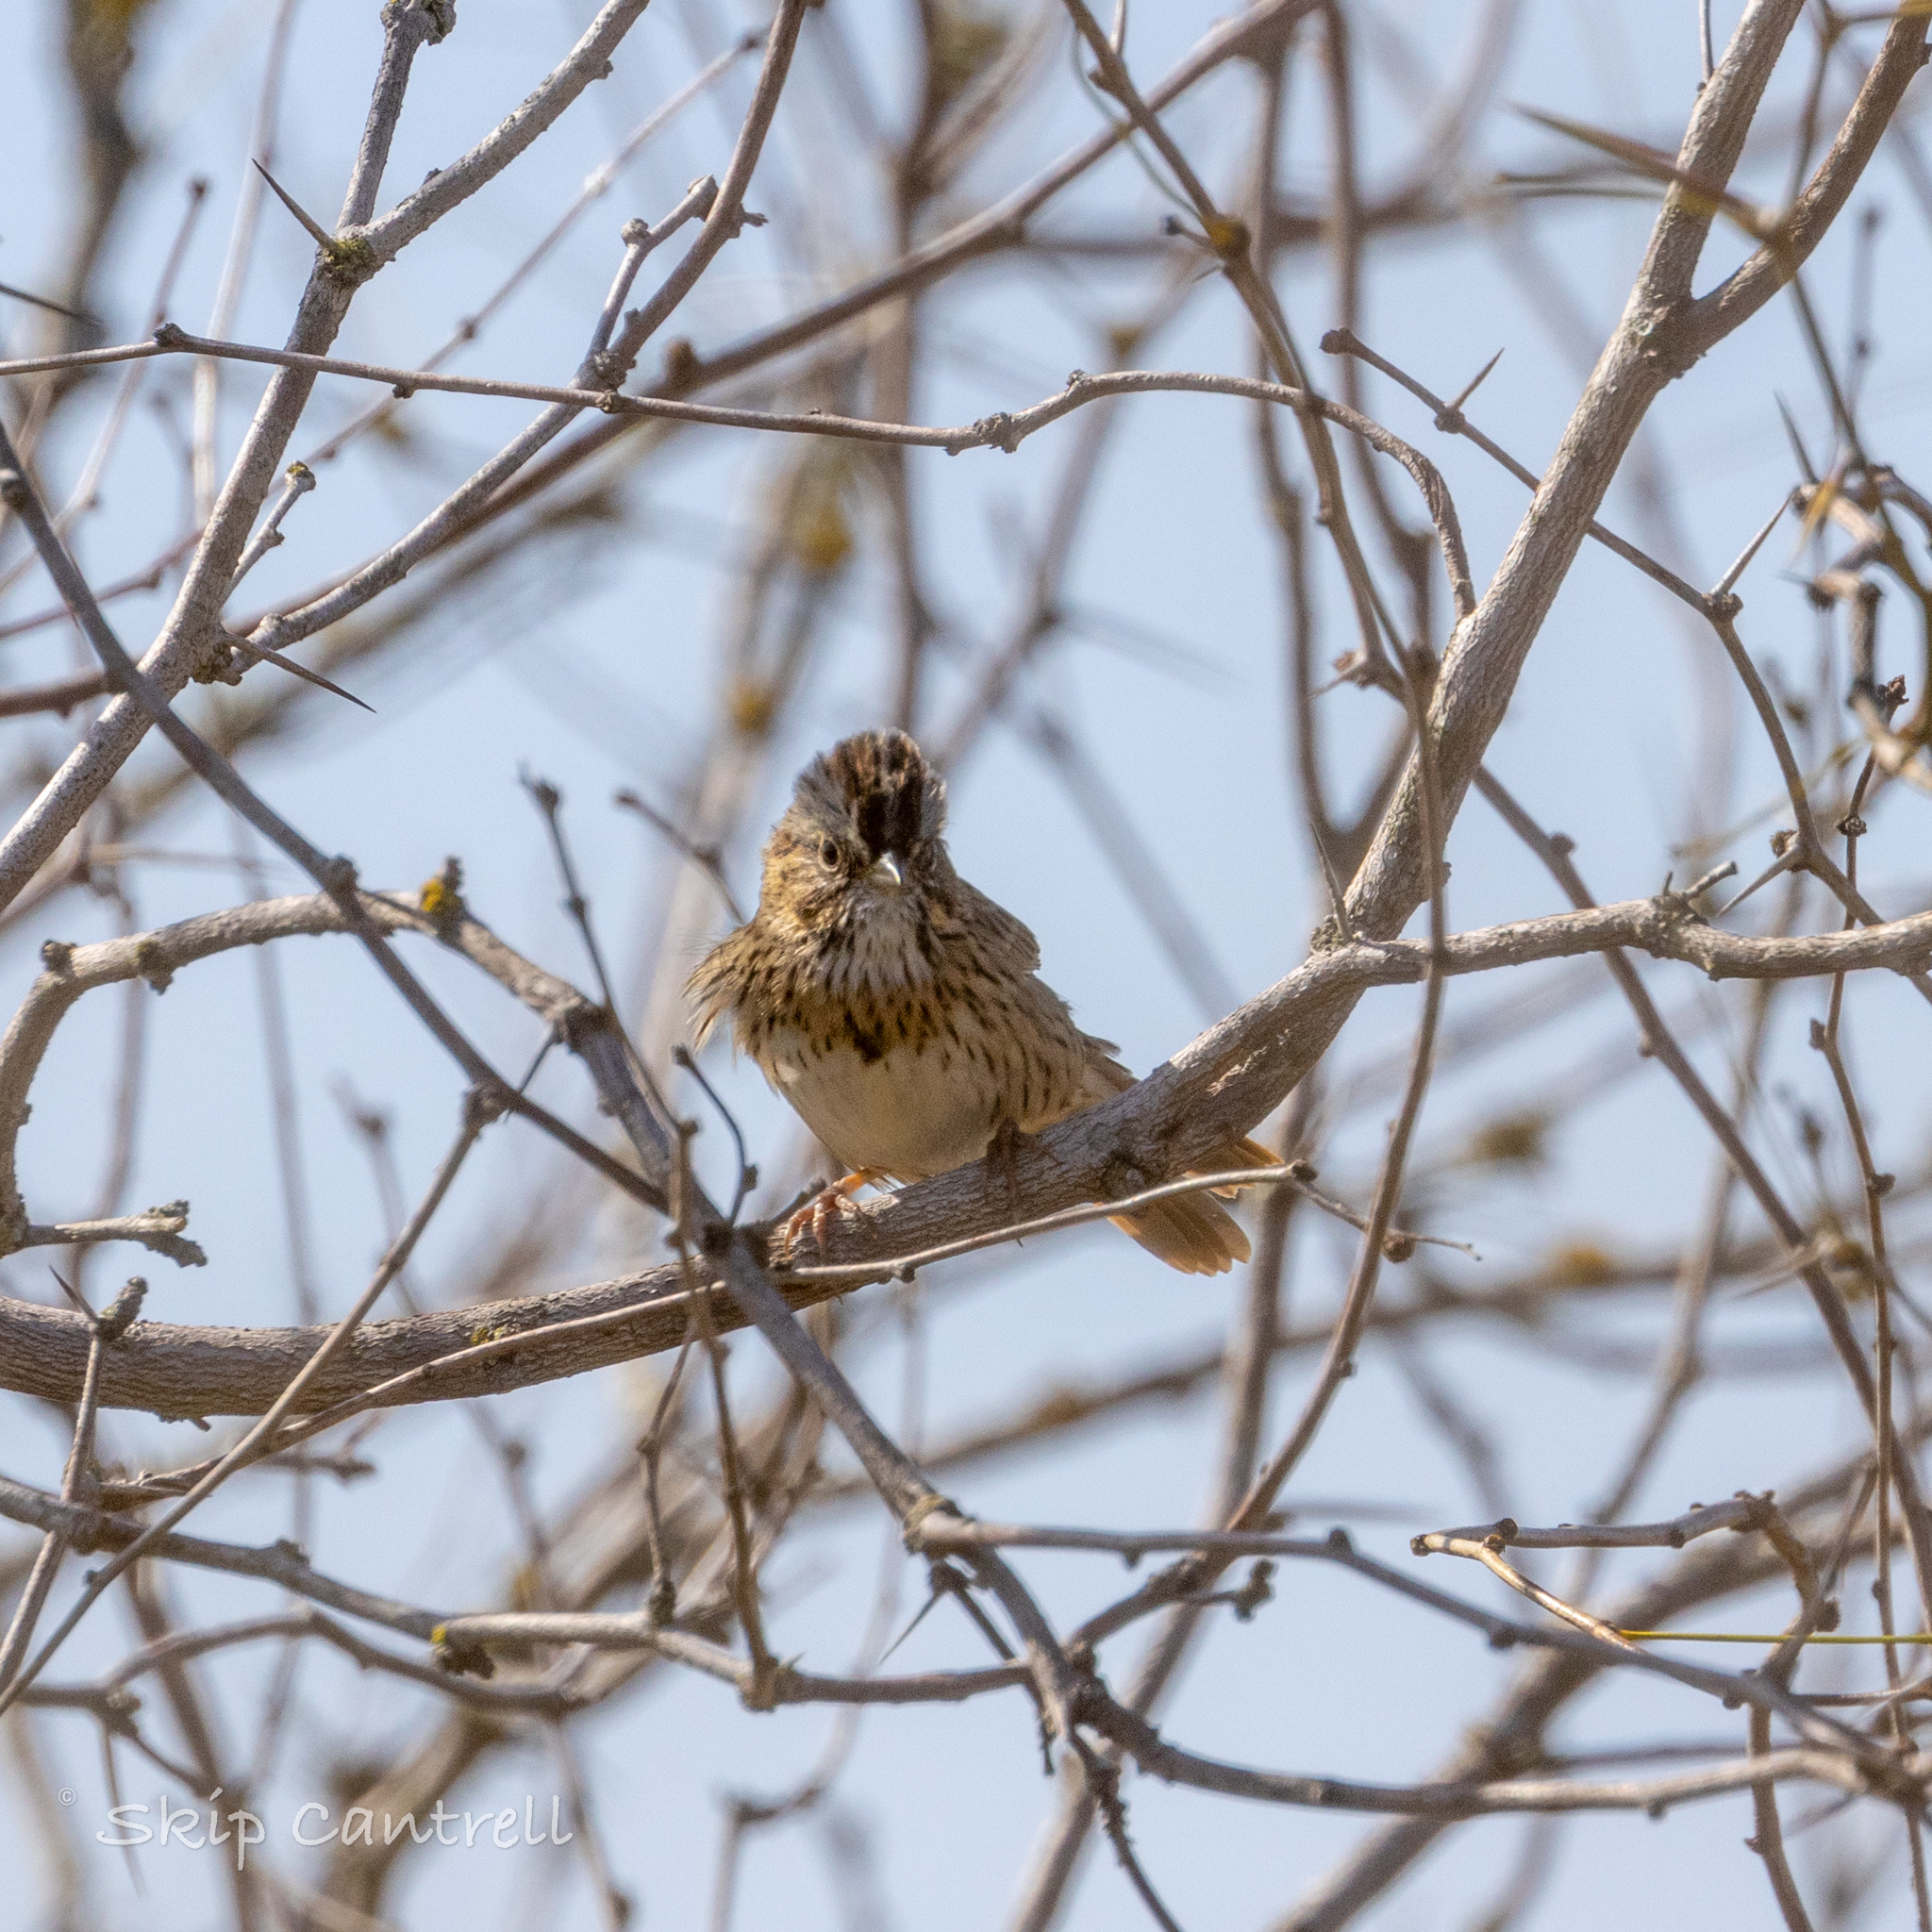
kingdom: Animalia
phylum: Chordata
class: Aves
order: Passeriformes
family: Passerellidae
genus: Melospiza
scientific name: Melospiza lincolnii
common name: Lincoln's sparrow
